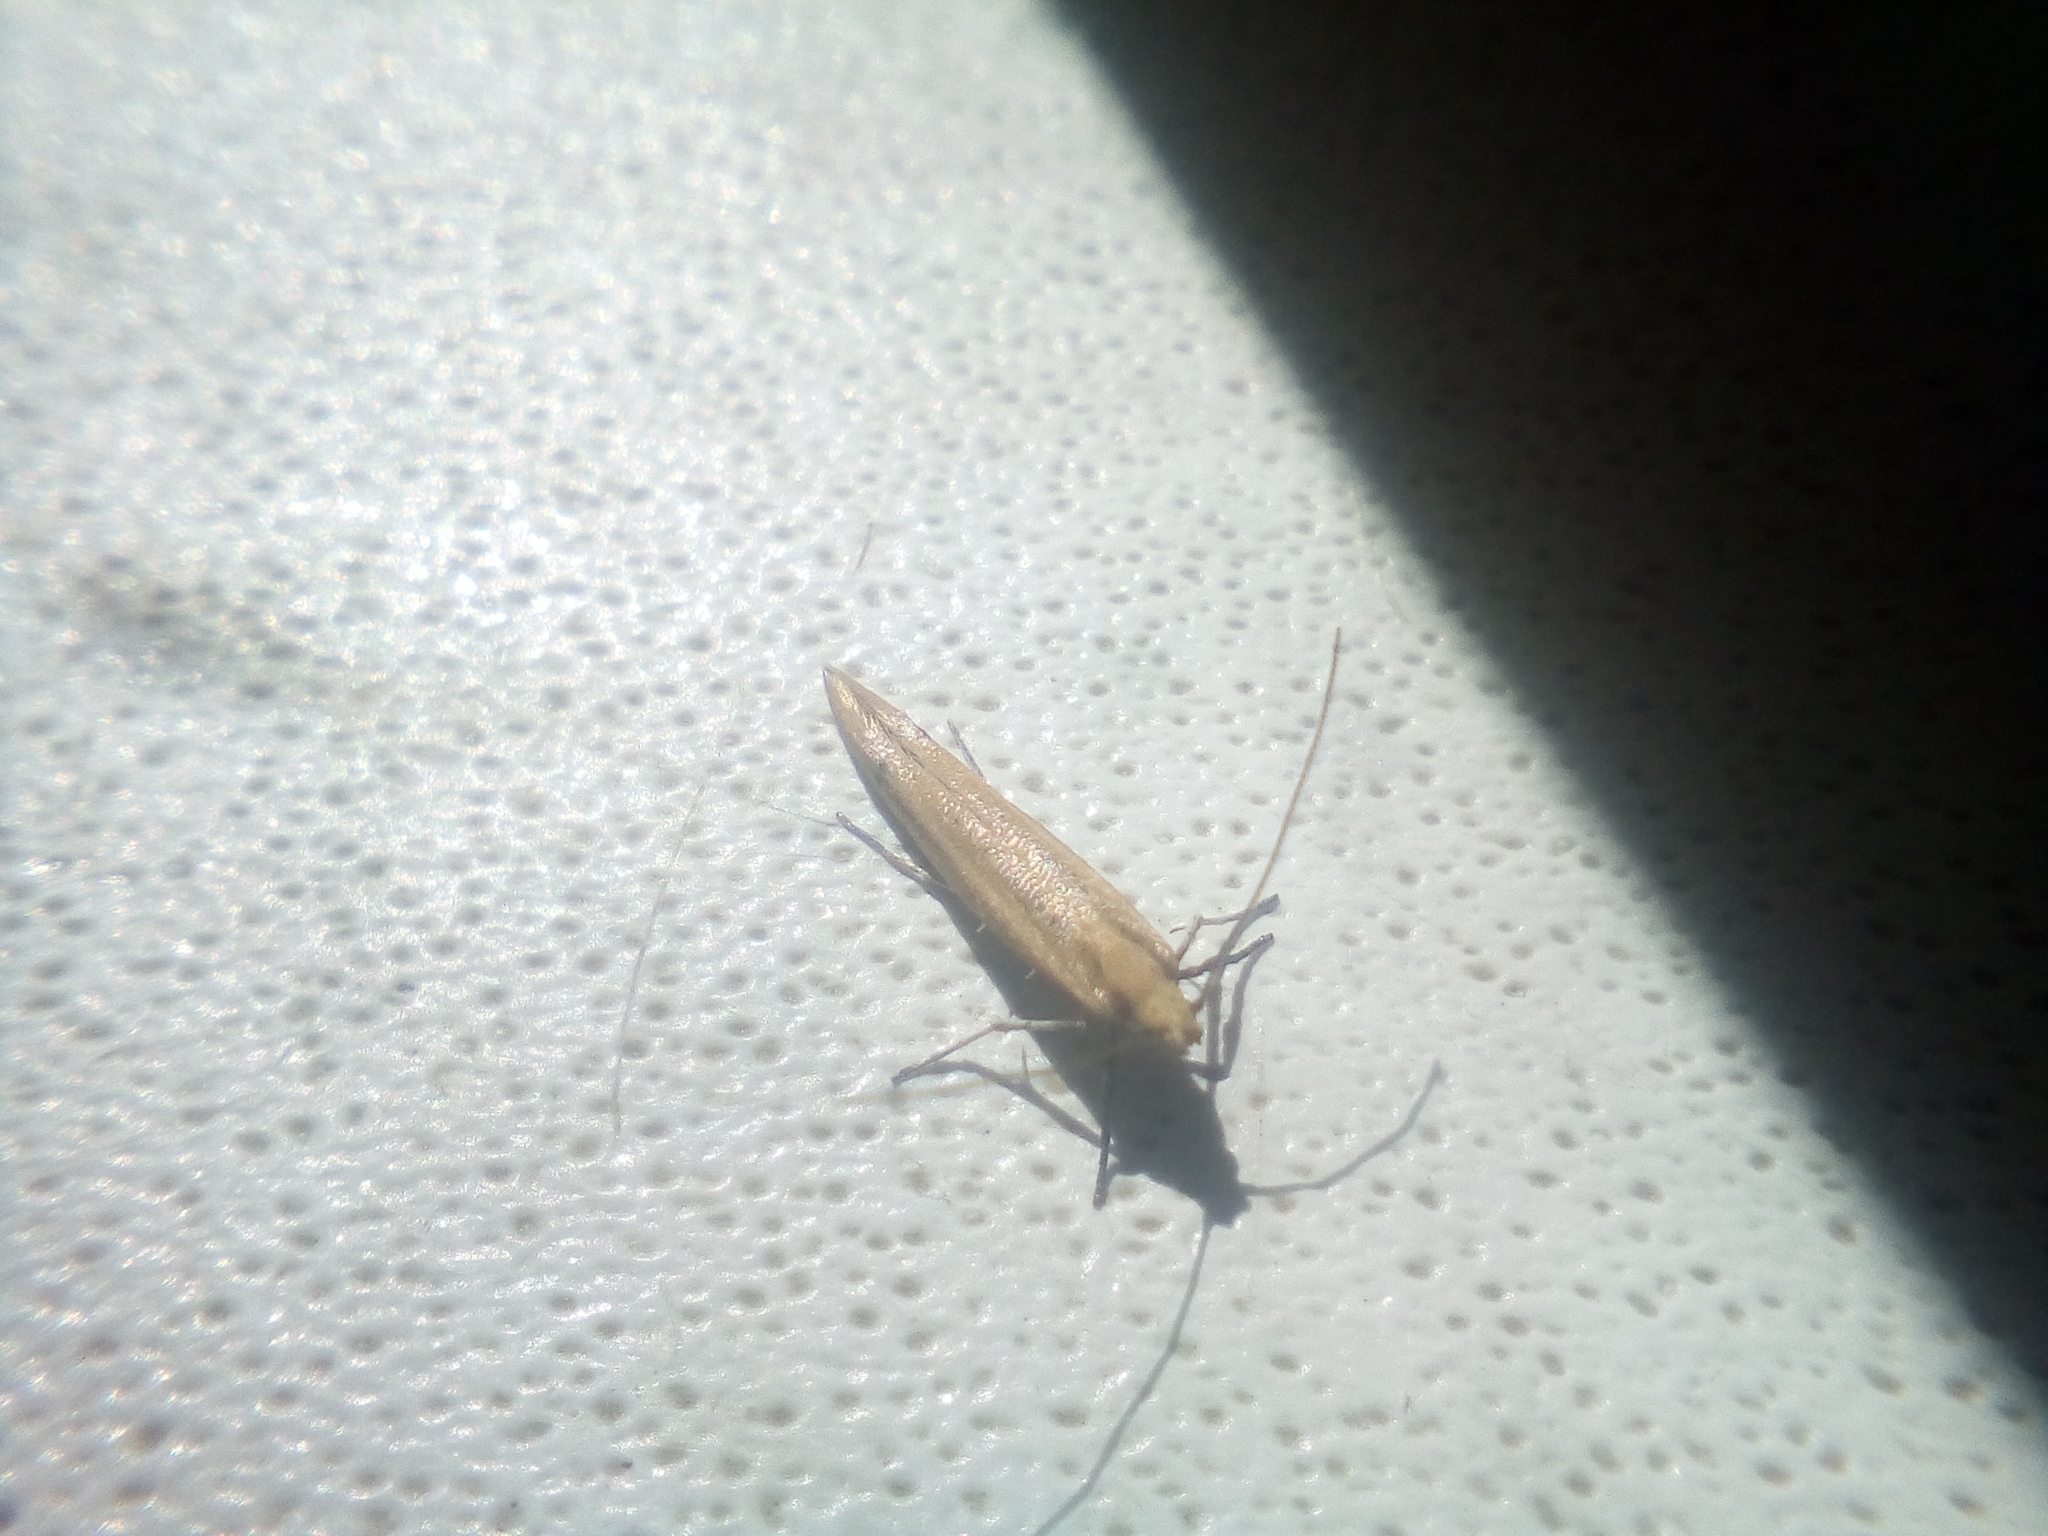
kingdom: Animalia
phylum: Arthropoda
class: Insecta
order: Lepidoptera
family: Yponomeutidae
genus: Euhyponomeutoides
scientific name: Euhyponomeutoides ribesiellus
